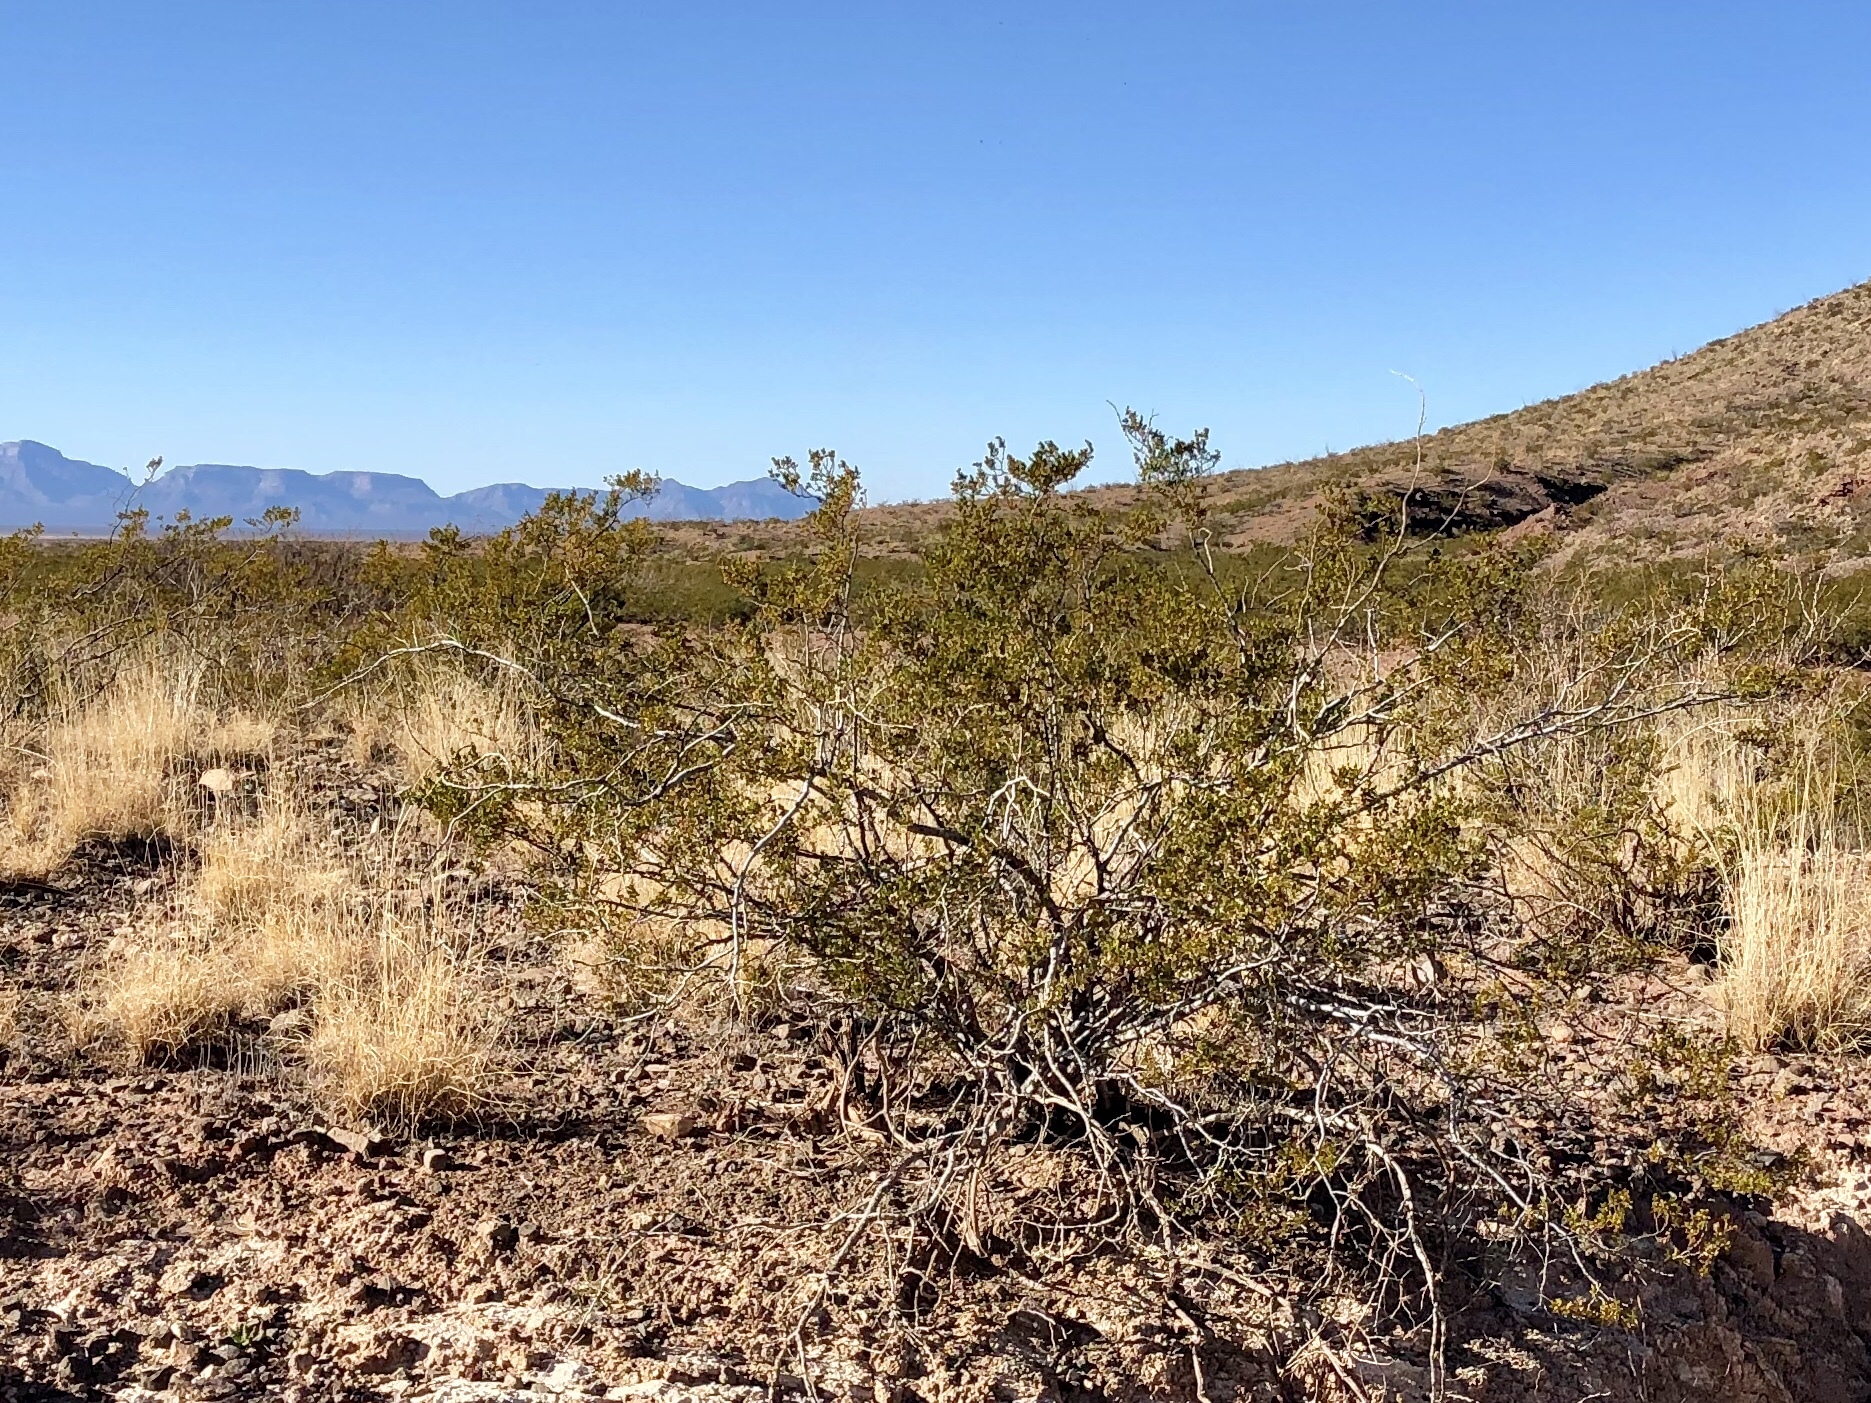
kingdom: Plantae
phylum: Tracheophyta
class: Magnoliopsida
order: Zygophyllales
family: Zygophyllaceae
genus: Larrea
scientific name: Larrea tridentata
